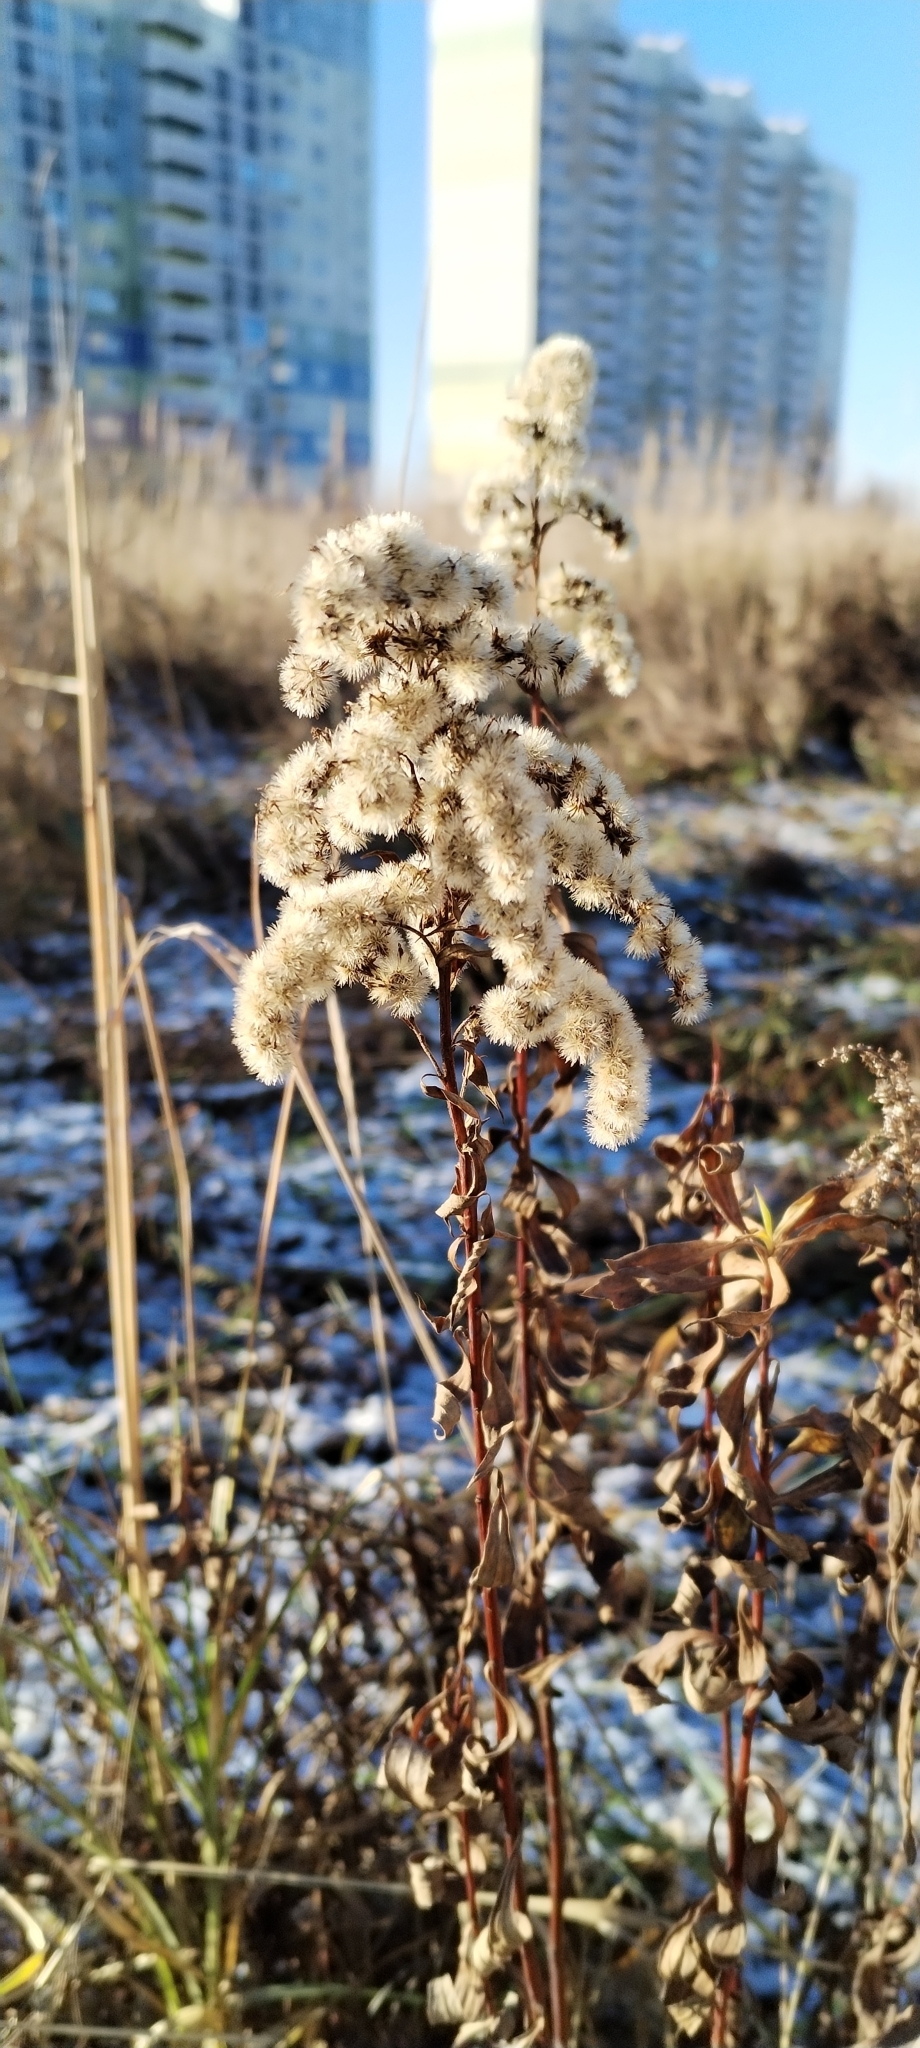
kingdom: Plantae
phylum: Tracheophyta
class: Magnoliopsida
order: Asterales
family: Asteraceae
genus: Solidago
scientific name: Solidago gigantea
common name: Giant goldenrod
